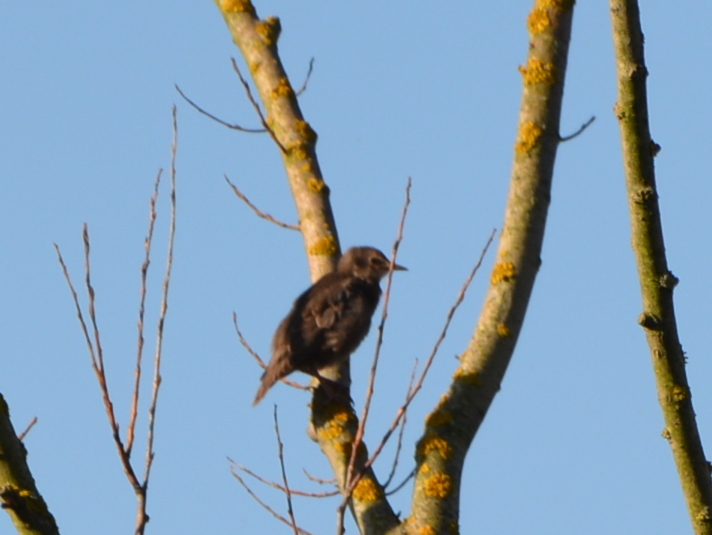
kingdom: Animalia
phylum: Chordata
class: Aves
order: Passeriformes
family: Sturnidae
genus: Sturnus
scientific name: Sturnus vulgaris
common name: Common starling
